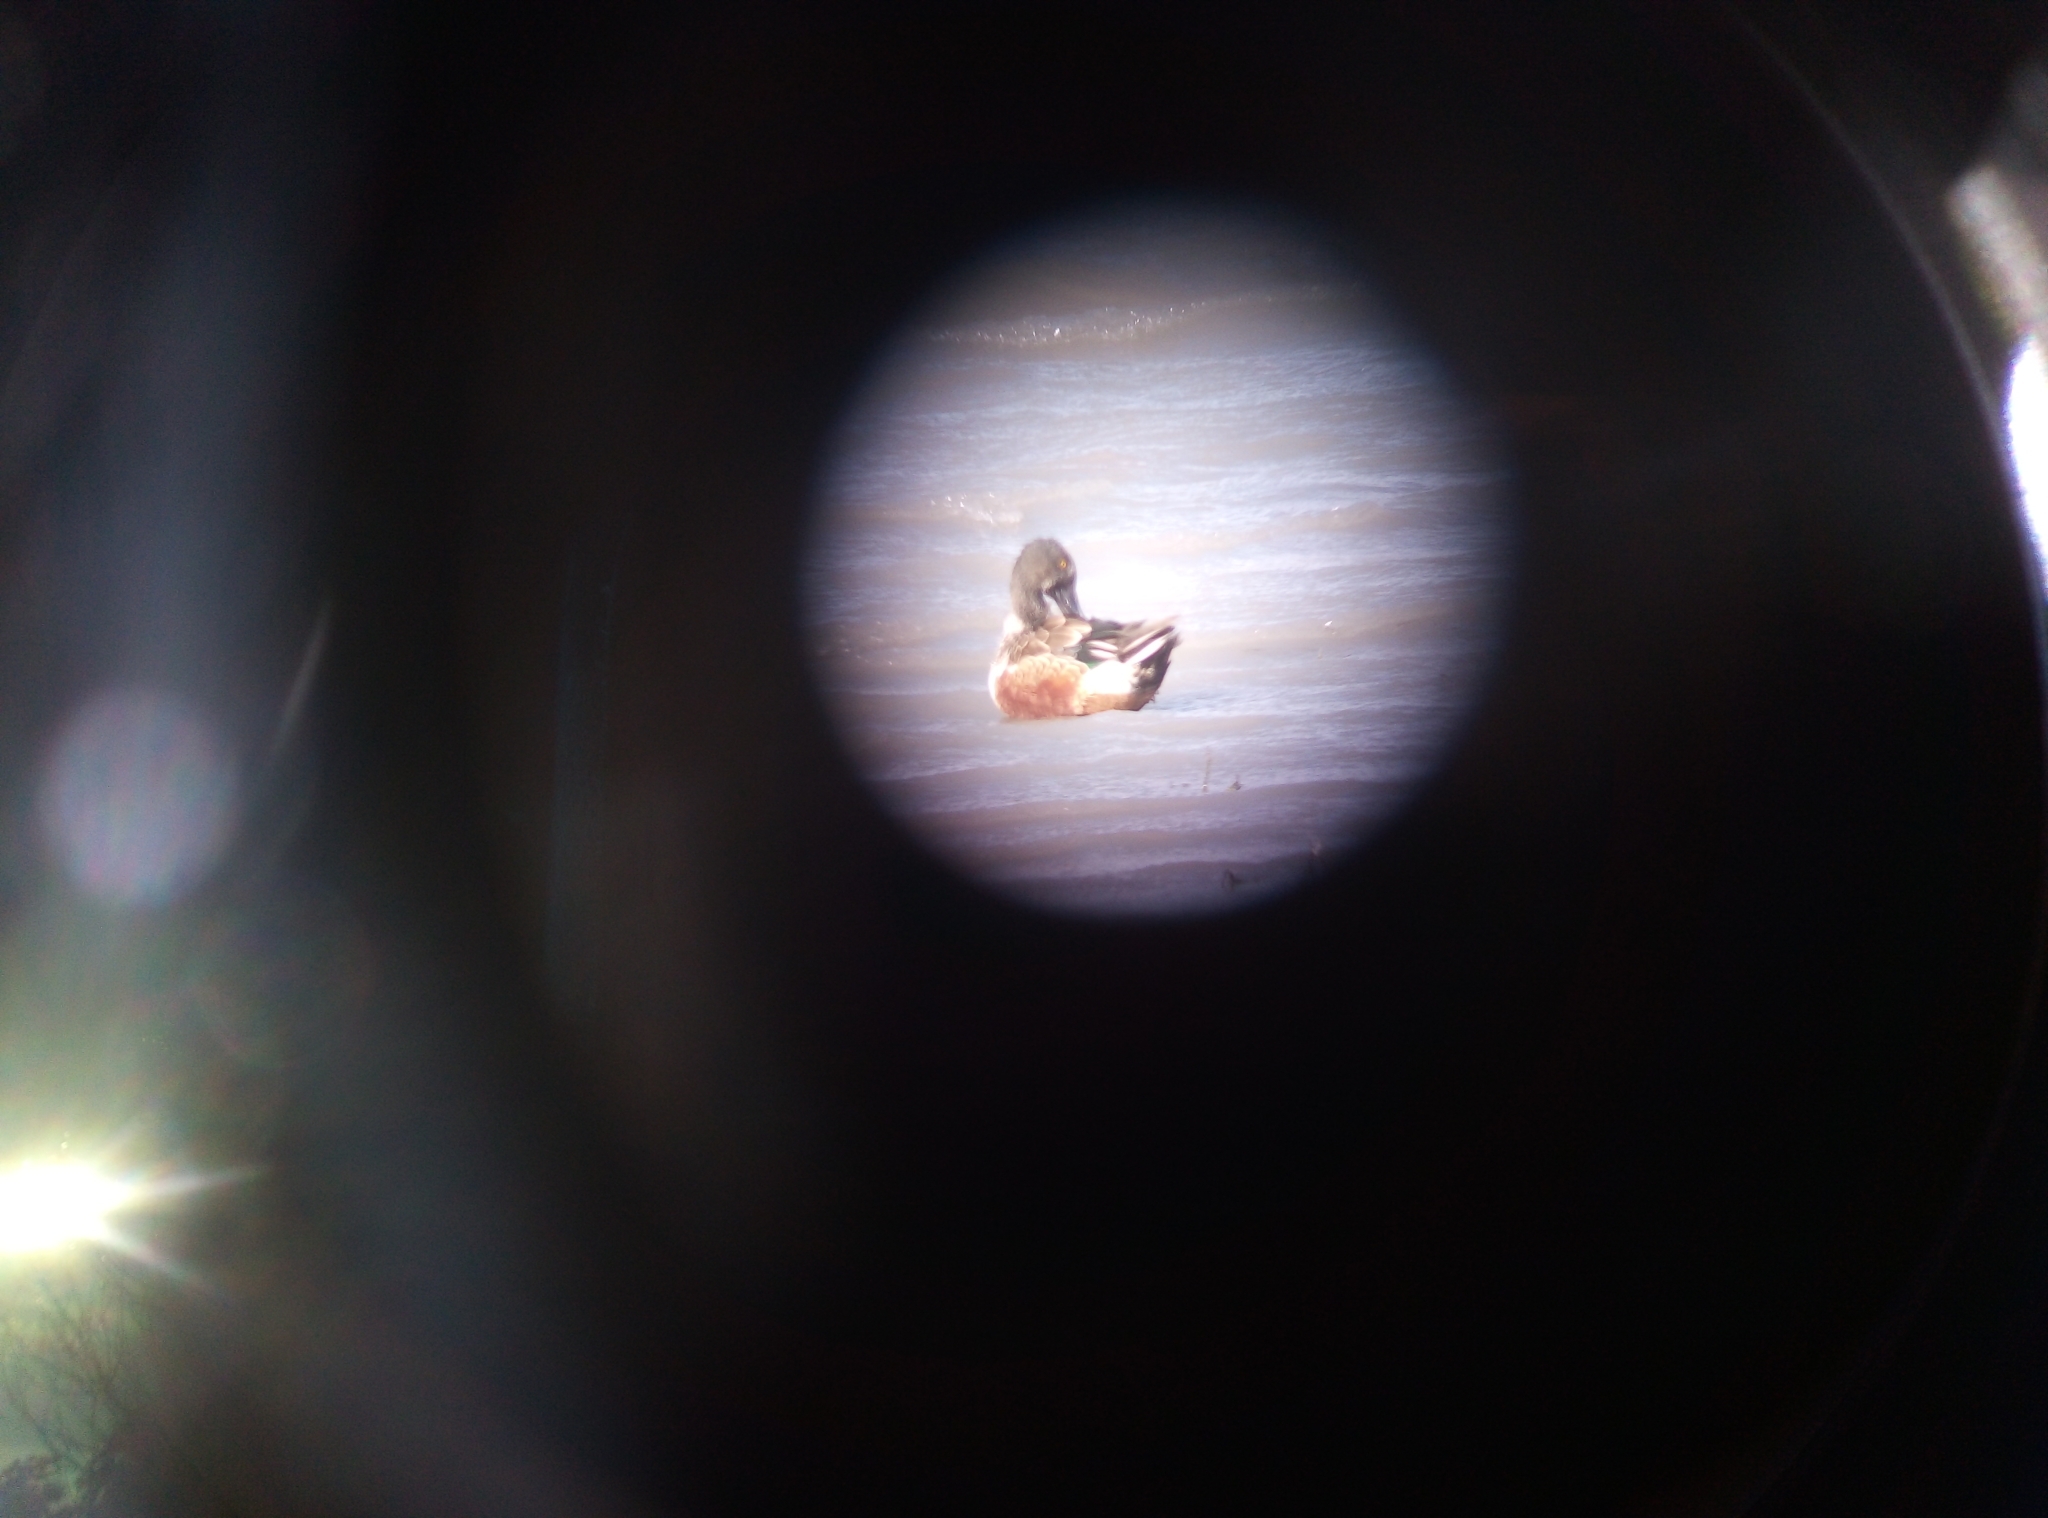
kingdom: Animalia
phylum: Chordata
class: Aves
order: Anseriformes
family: Anatidae
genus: Spatula
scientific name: Spatula clypeata
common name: Northern shoveler
